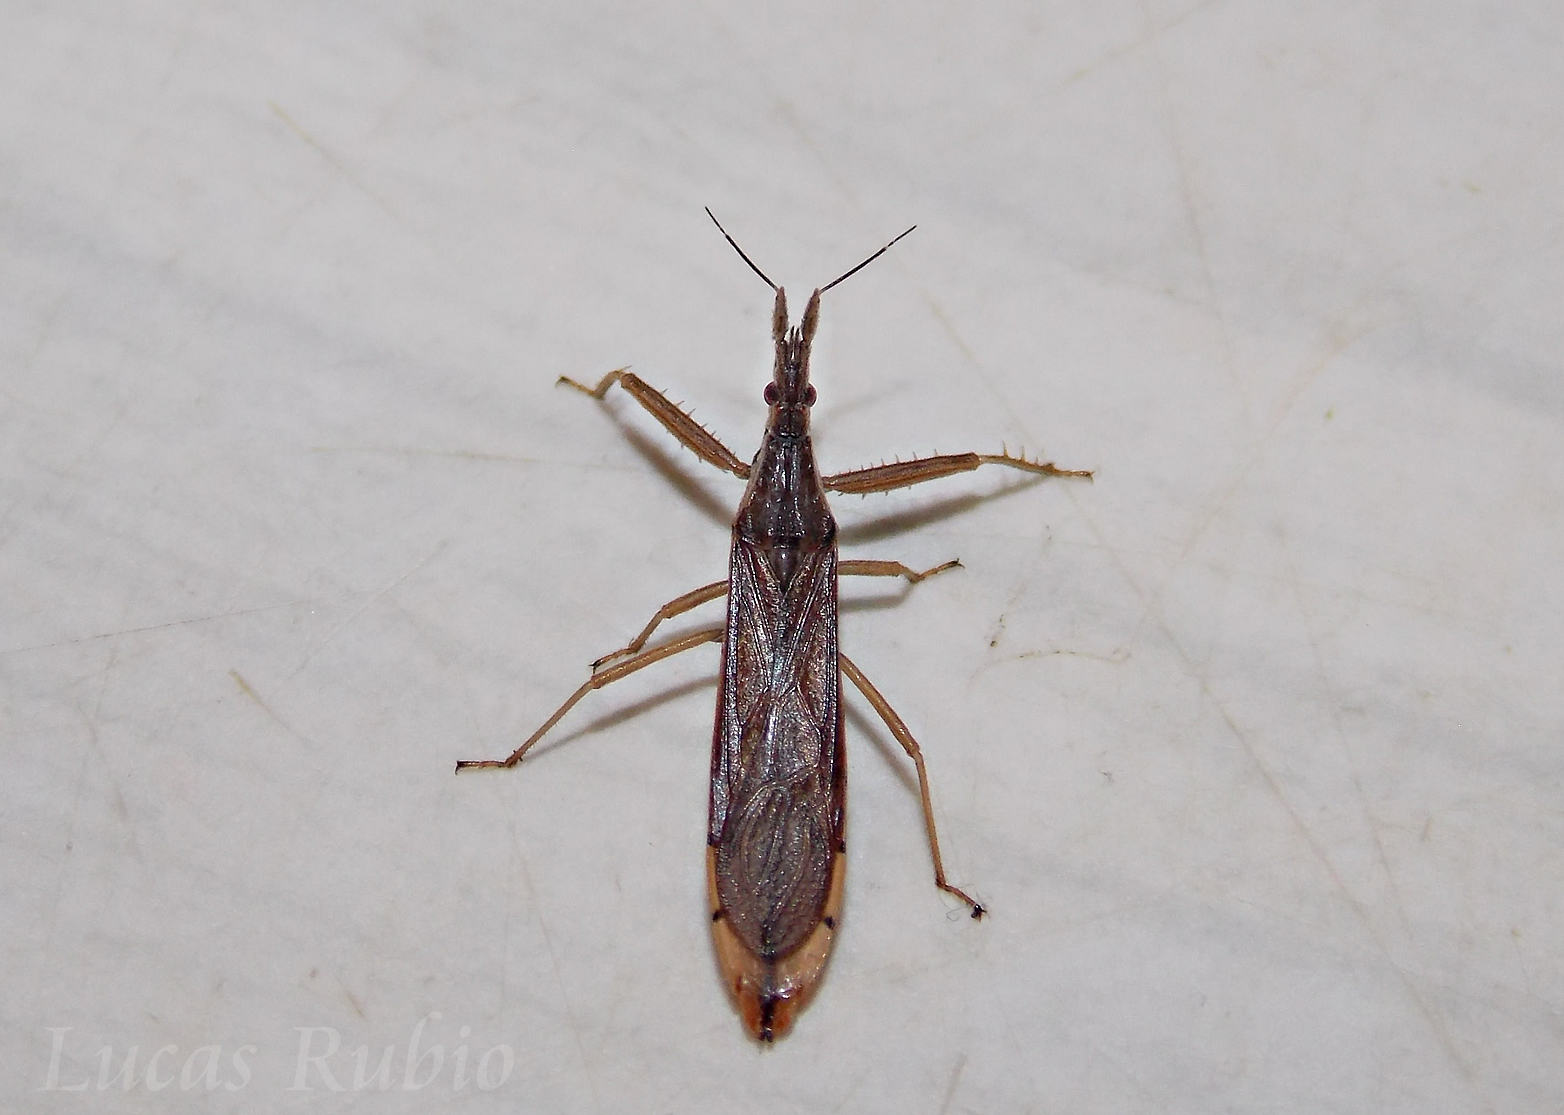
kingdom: Animalia
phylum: Arthropoda
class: Insecta
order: Hemiptera
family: Reduviidae
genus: Pnirontis
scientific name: Pnirontis edentula
